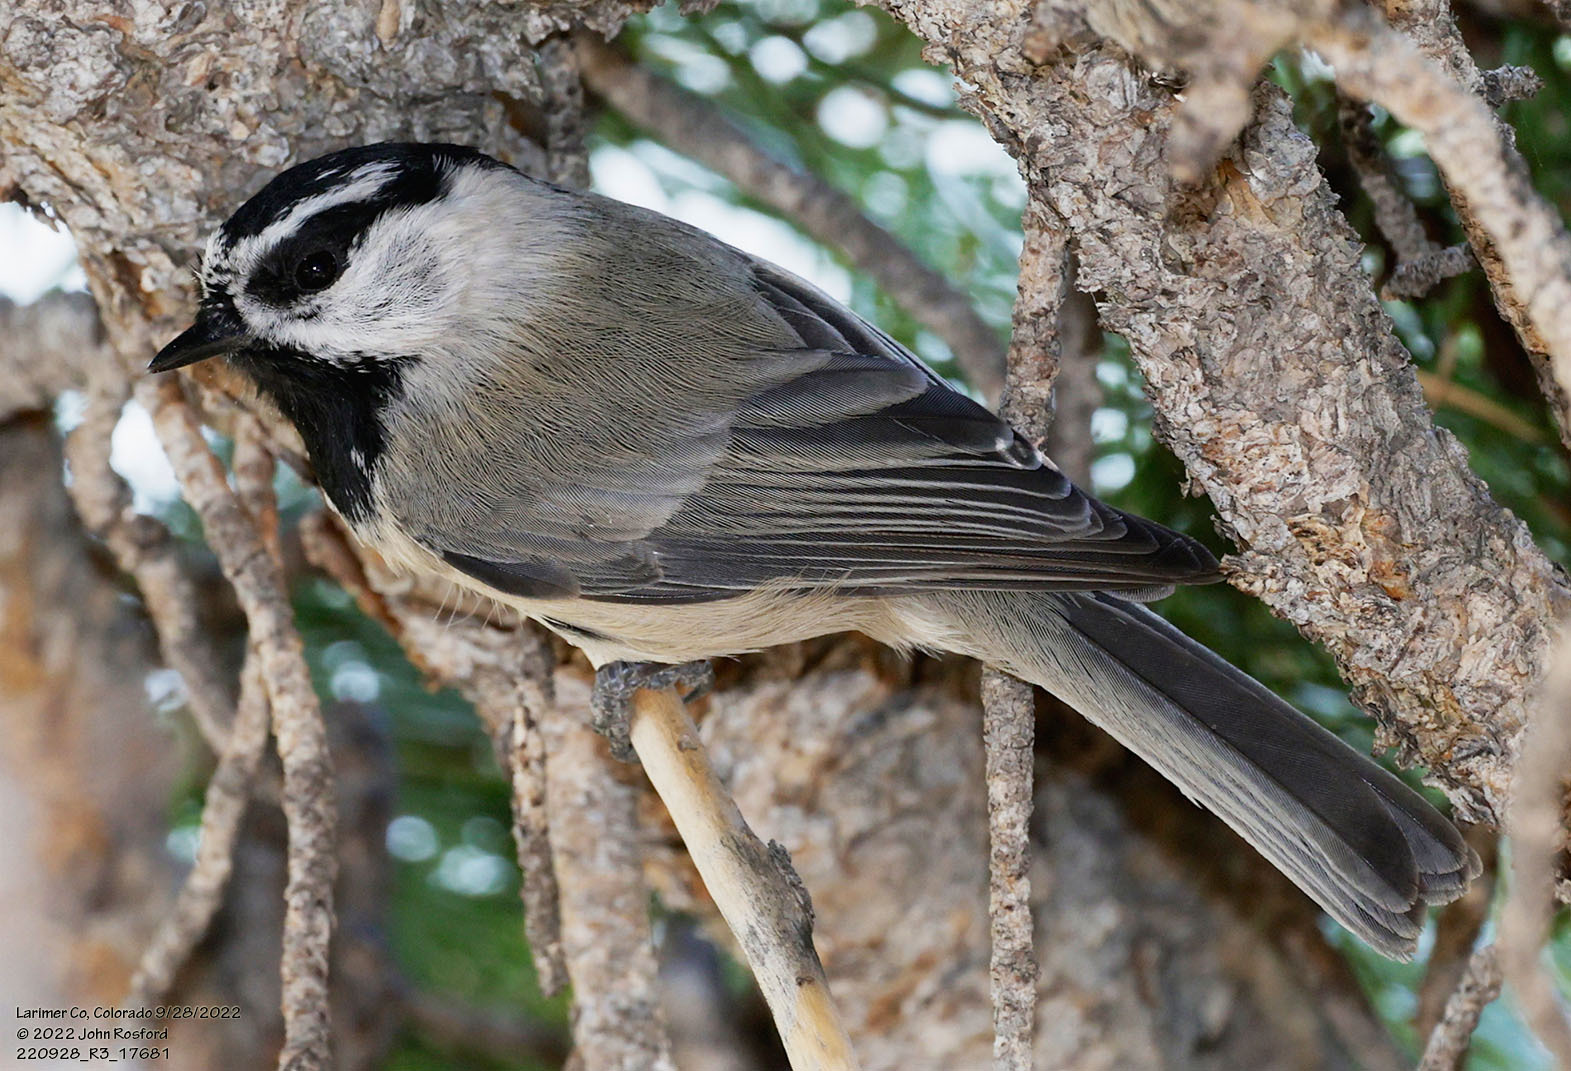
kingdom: Animalia
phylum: Chordata
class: Aves
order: Passeriformes
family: Paridae
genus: Poecile
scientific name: Poecile gambeli
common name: Mountain chickadee
